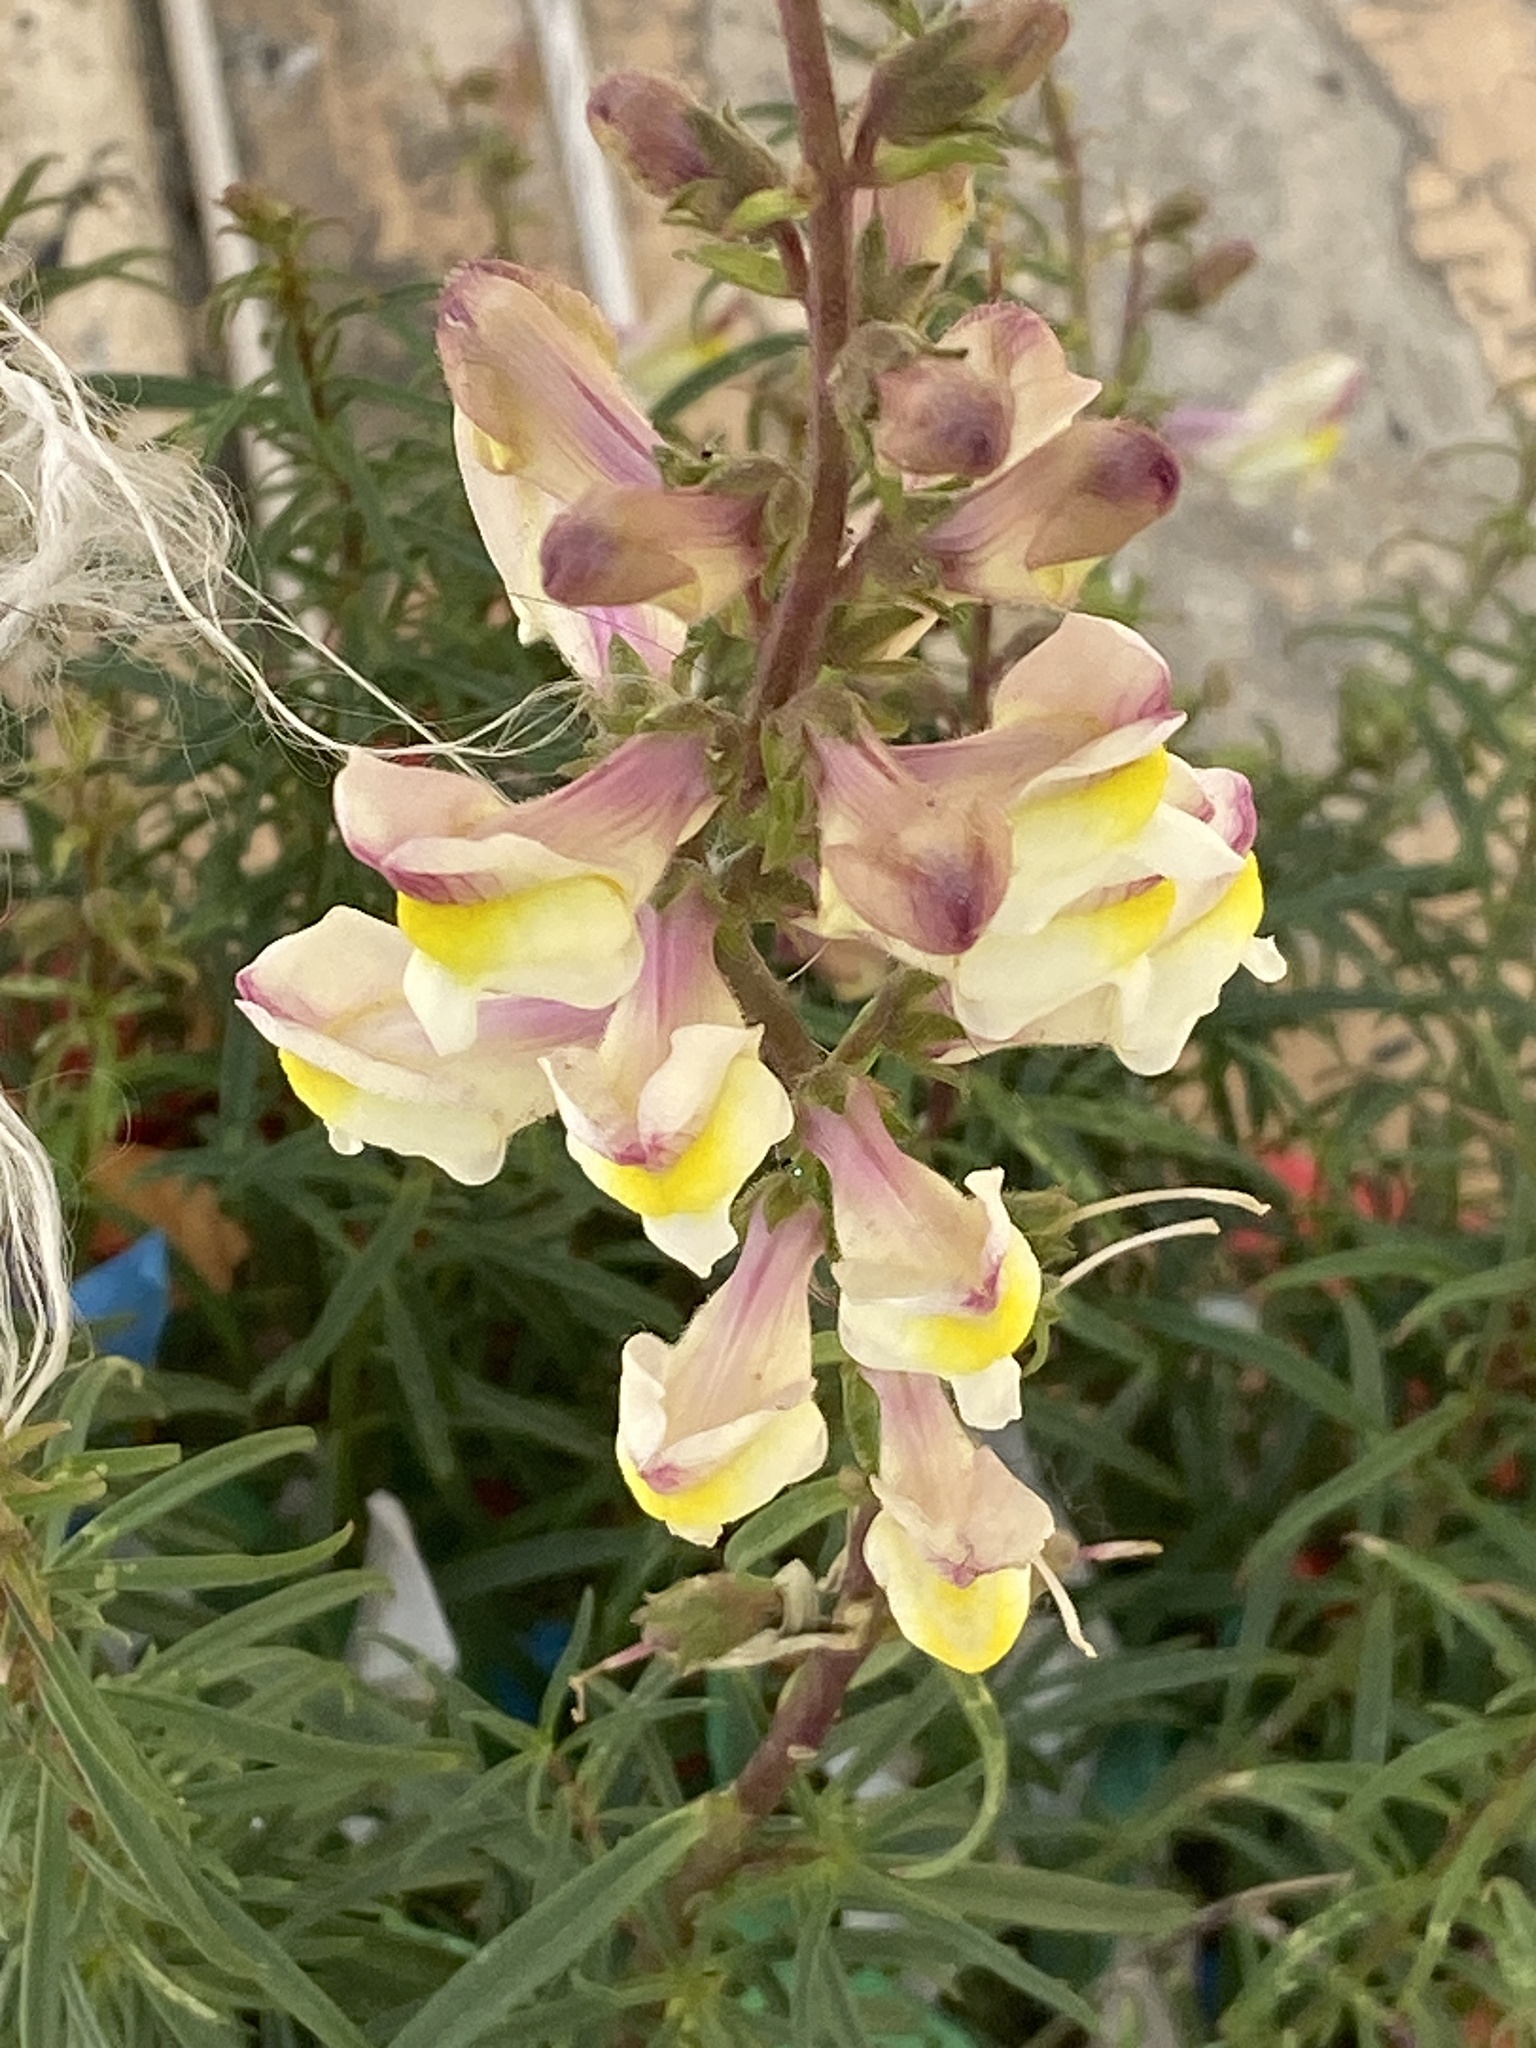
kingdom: Plantae
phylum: Tracheophyta
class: Magnoliopsida
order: Lamiales
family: Plantaginaceae
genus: Antirrhinum
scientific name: Antirrhinum siculum
